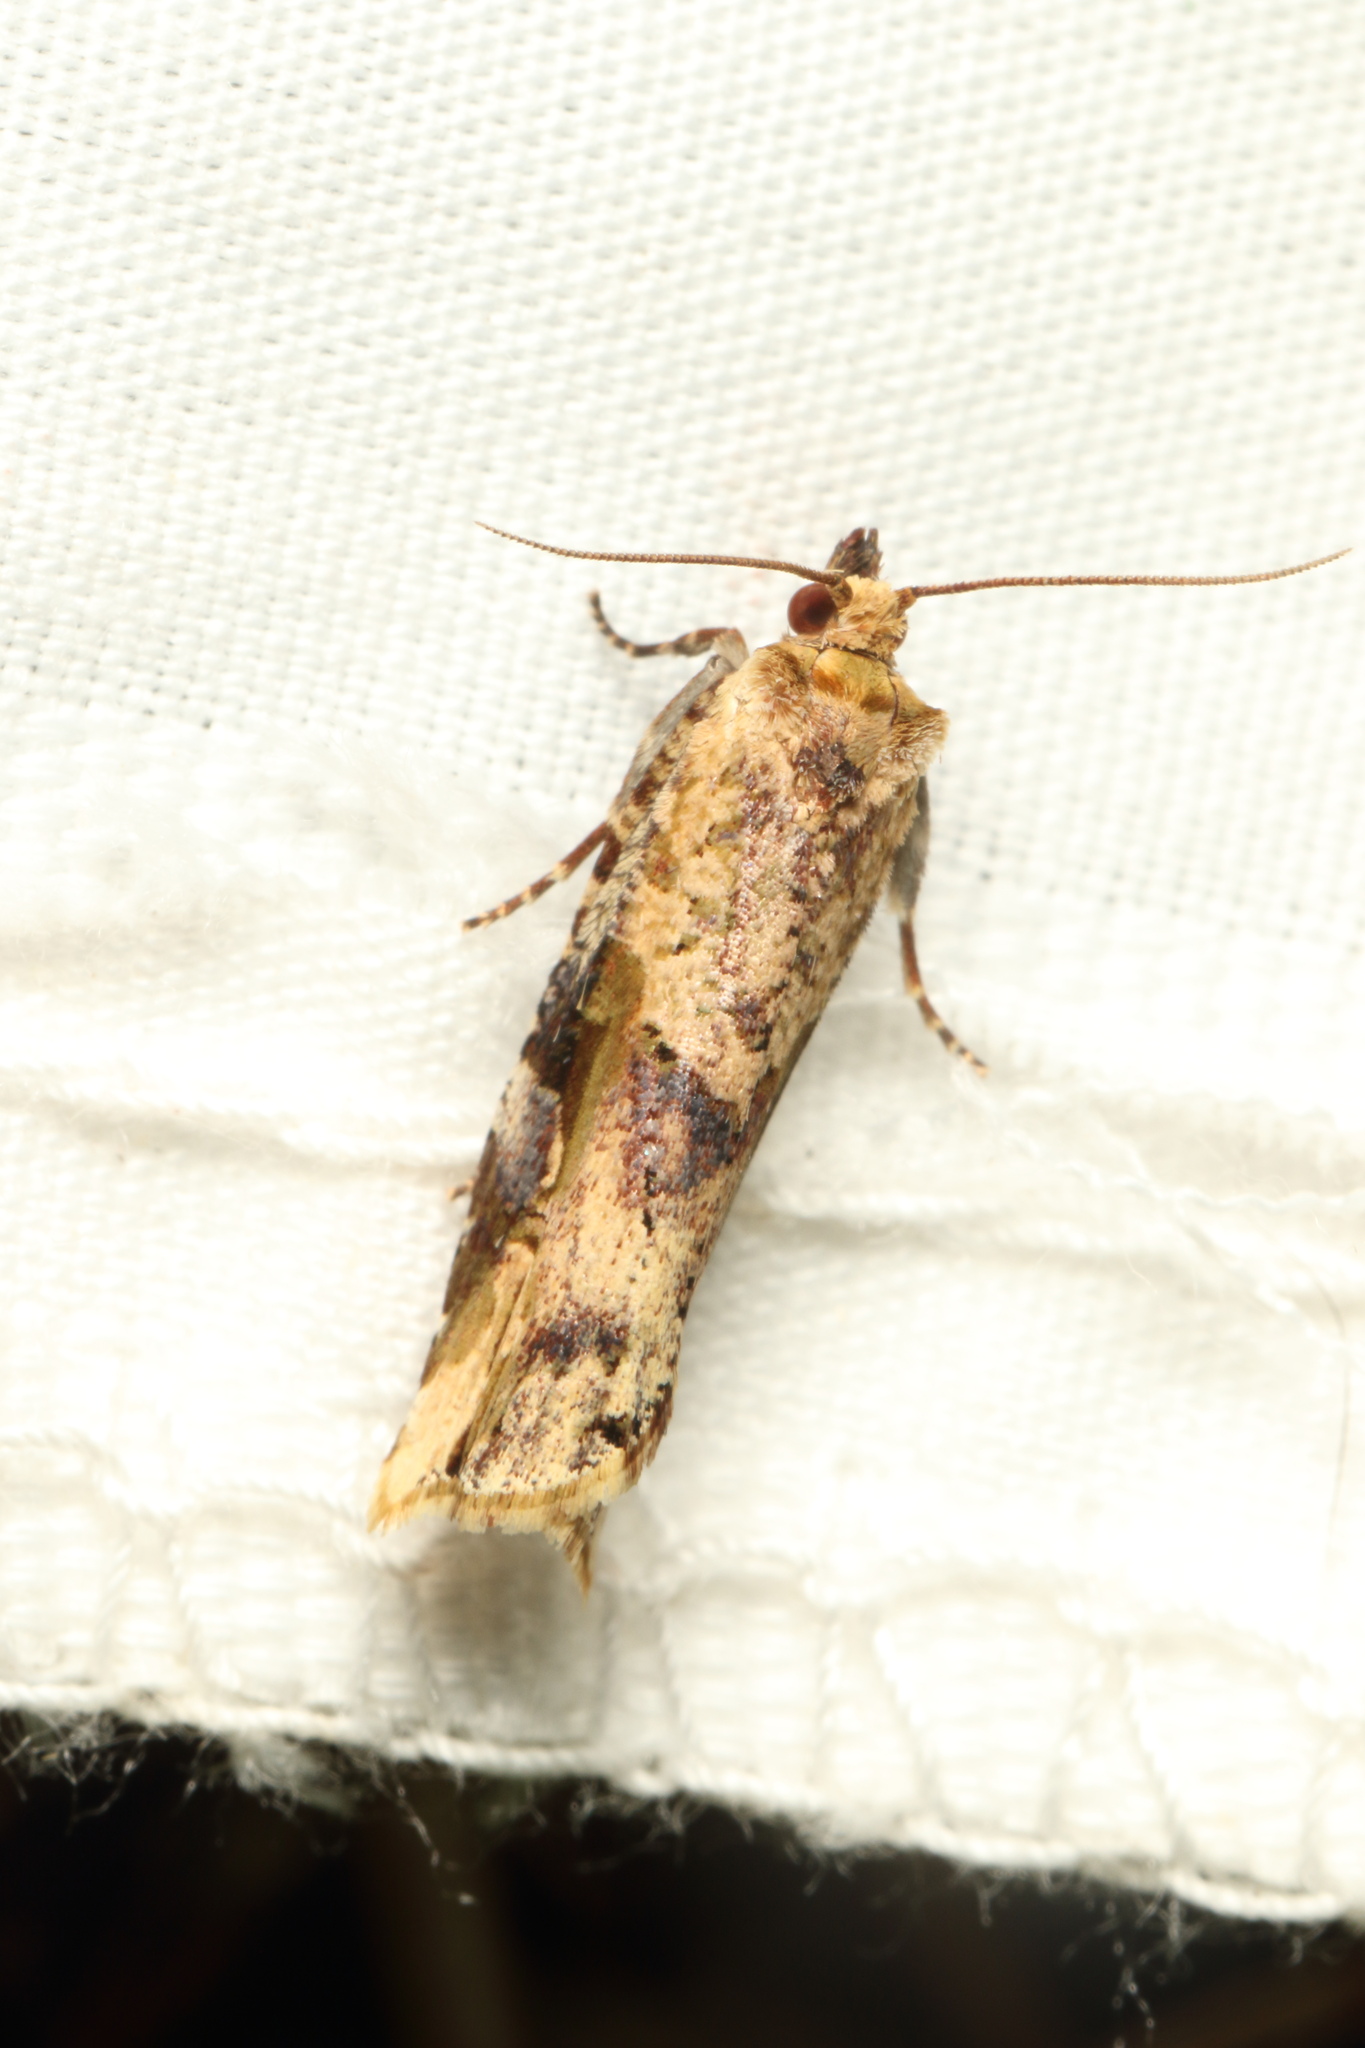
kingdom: Animalia
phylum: Arthropoda
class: Insecta
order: Lepidoptera
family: Tortricidae
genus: Epalxiphora
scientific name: Epalxiphora axenana
